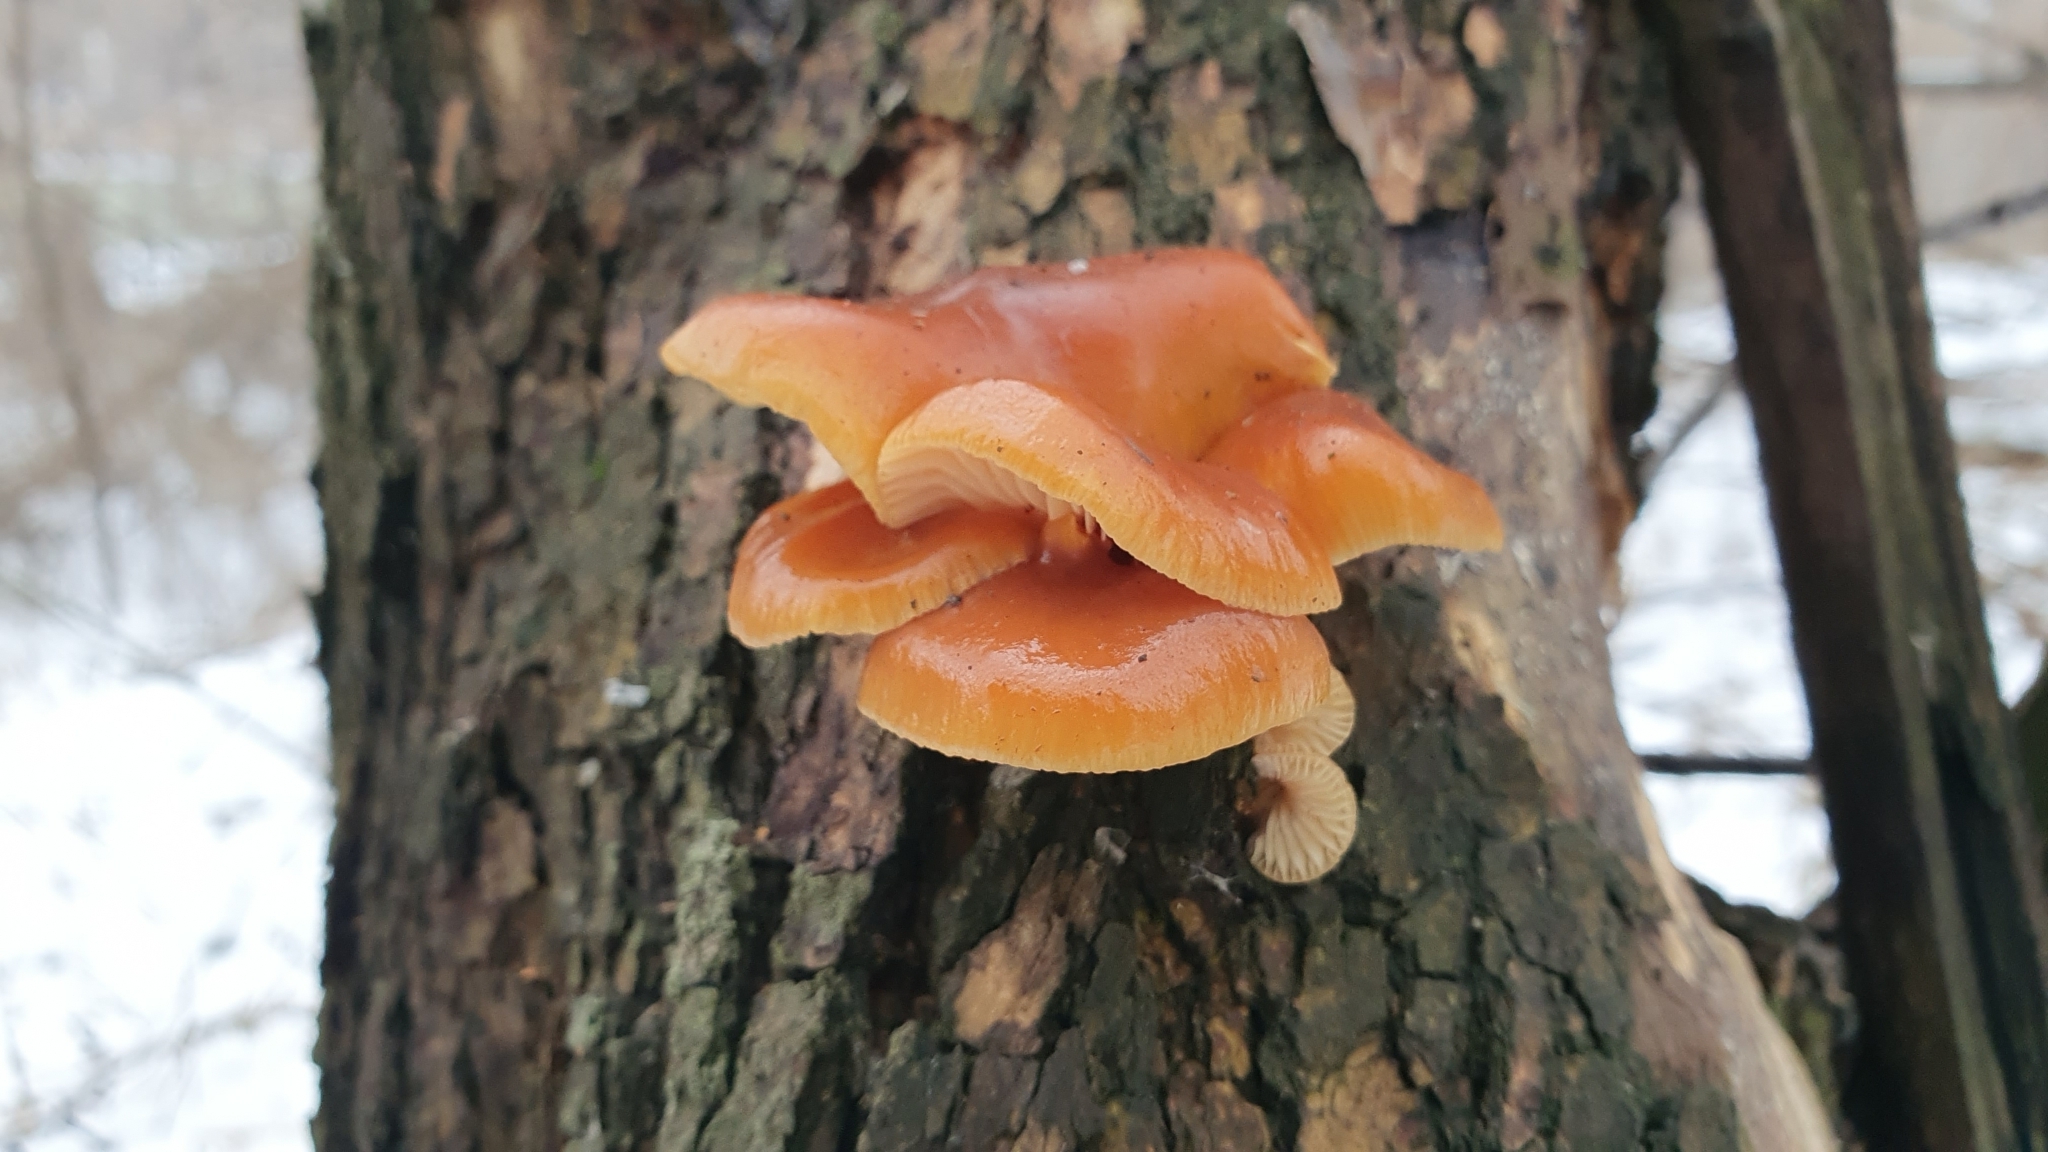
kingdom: Fungi
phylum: Basidiomycota
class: Agaricomycetes
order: Agaricales
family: Physalacriaceae
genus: Flammulina
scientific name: Flammulina
